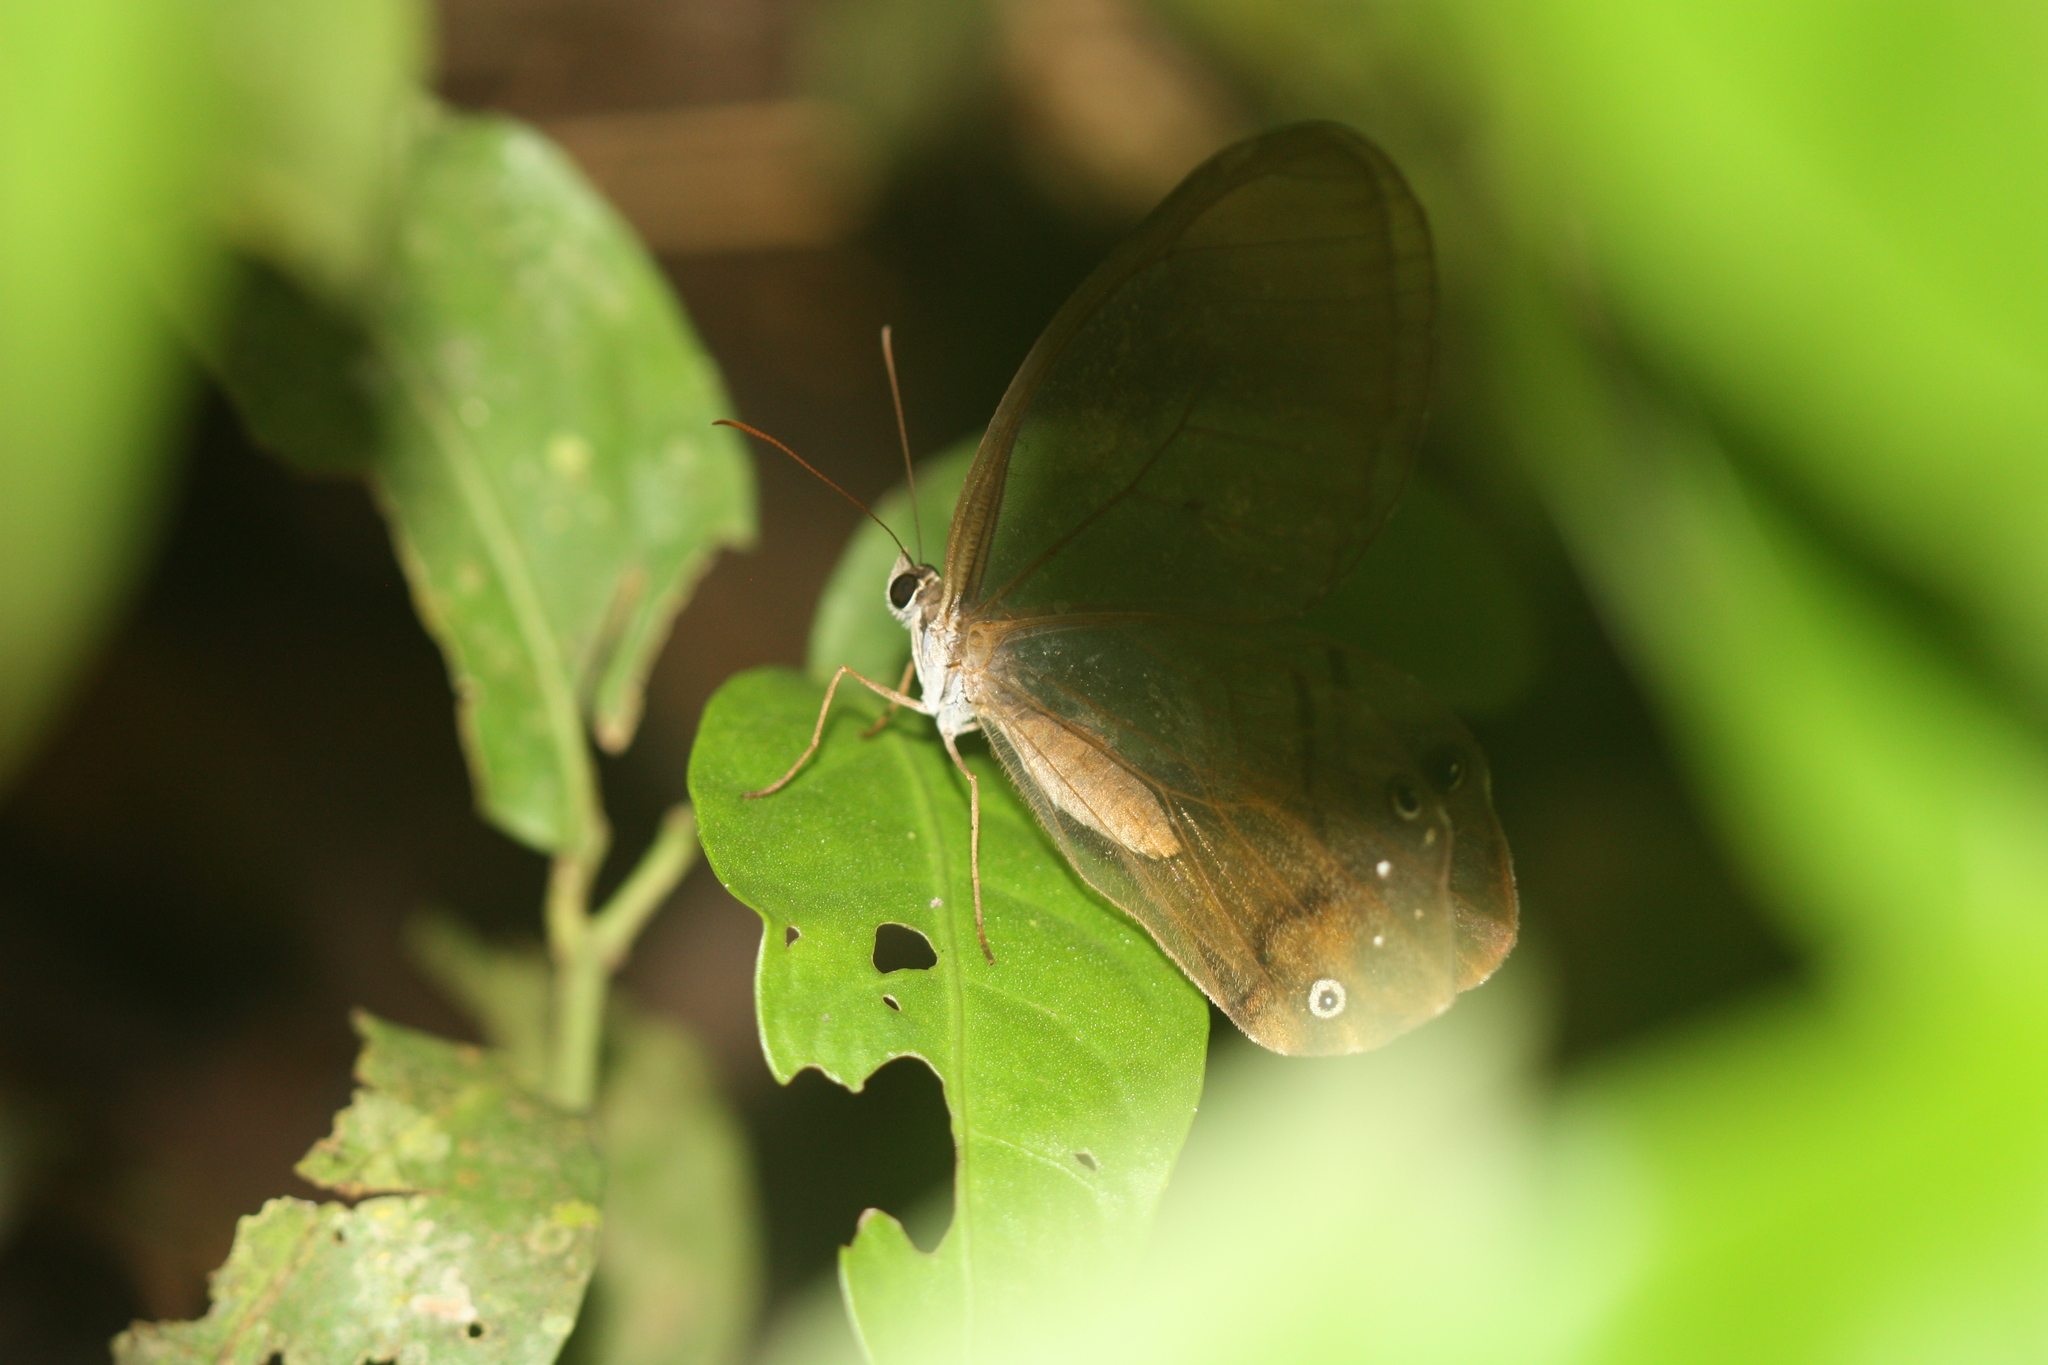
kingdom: Animalia
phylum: Arthropoda
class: Insecta
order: Lepidoptera
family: Nymphalidae
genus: Haetera
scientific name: Haetera piera
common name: Amber phantom
